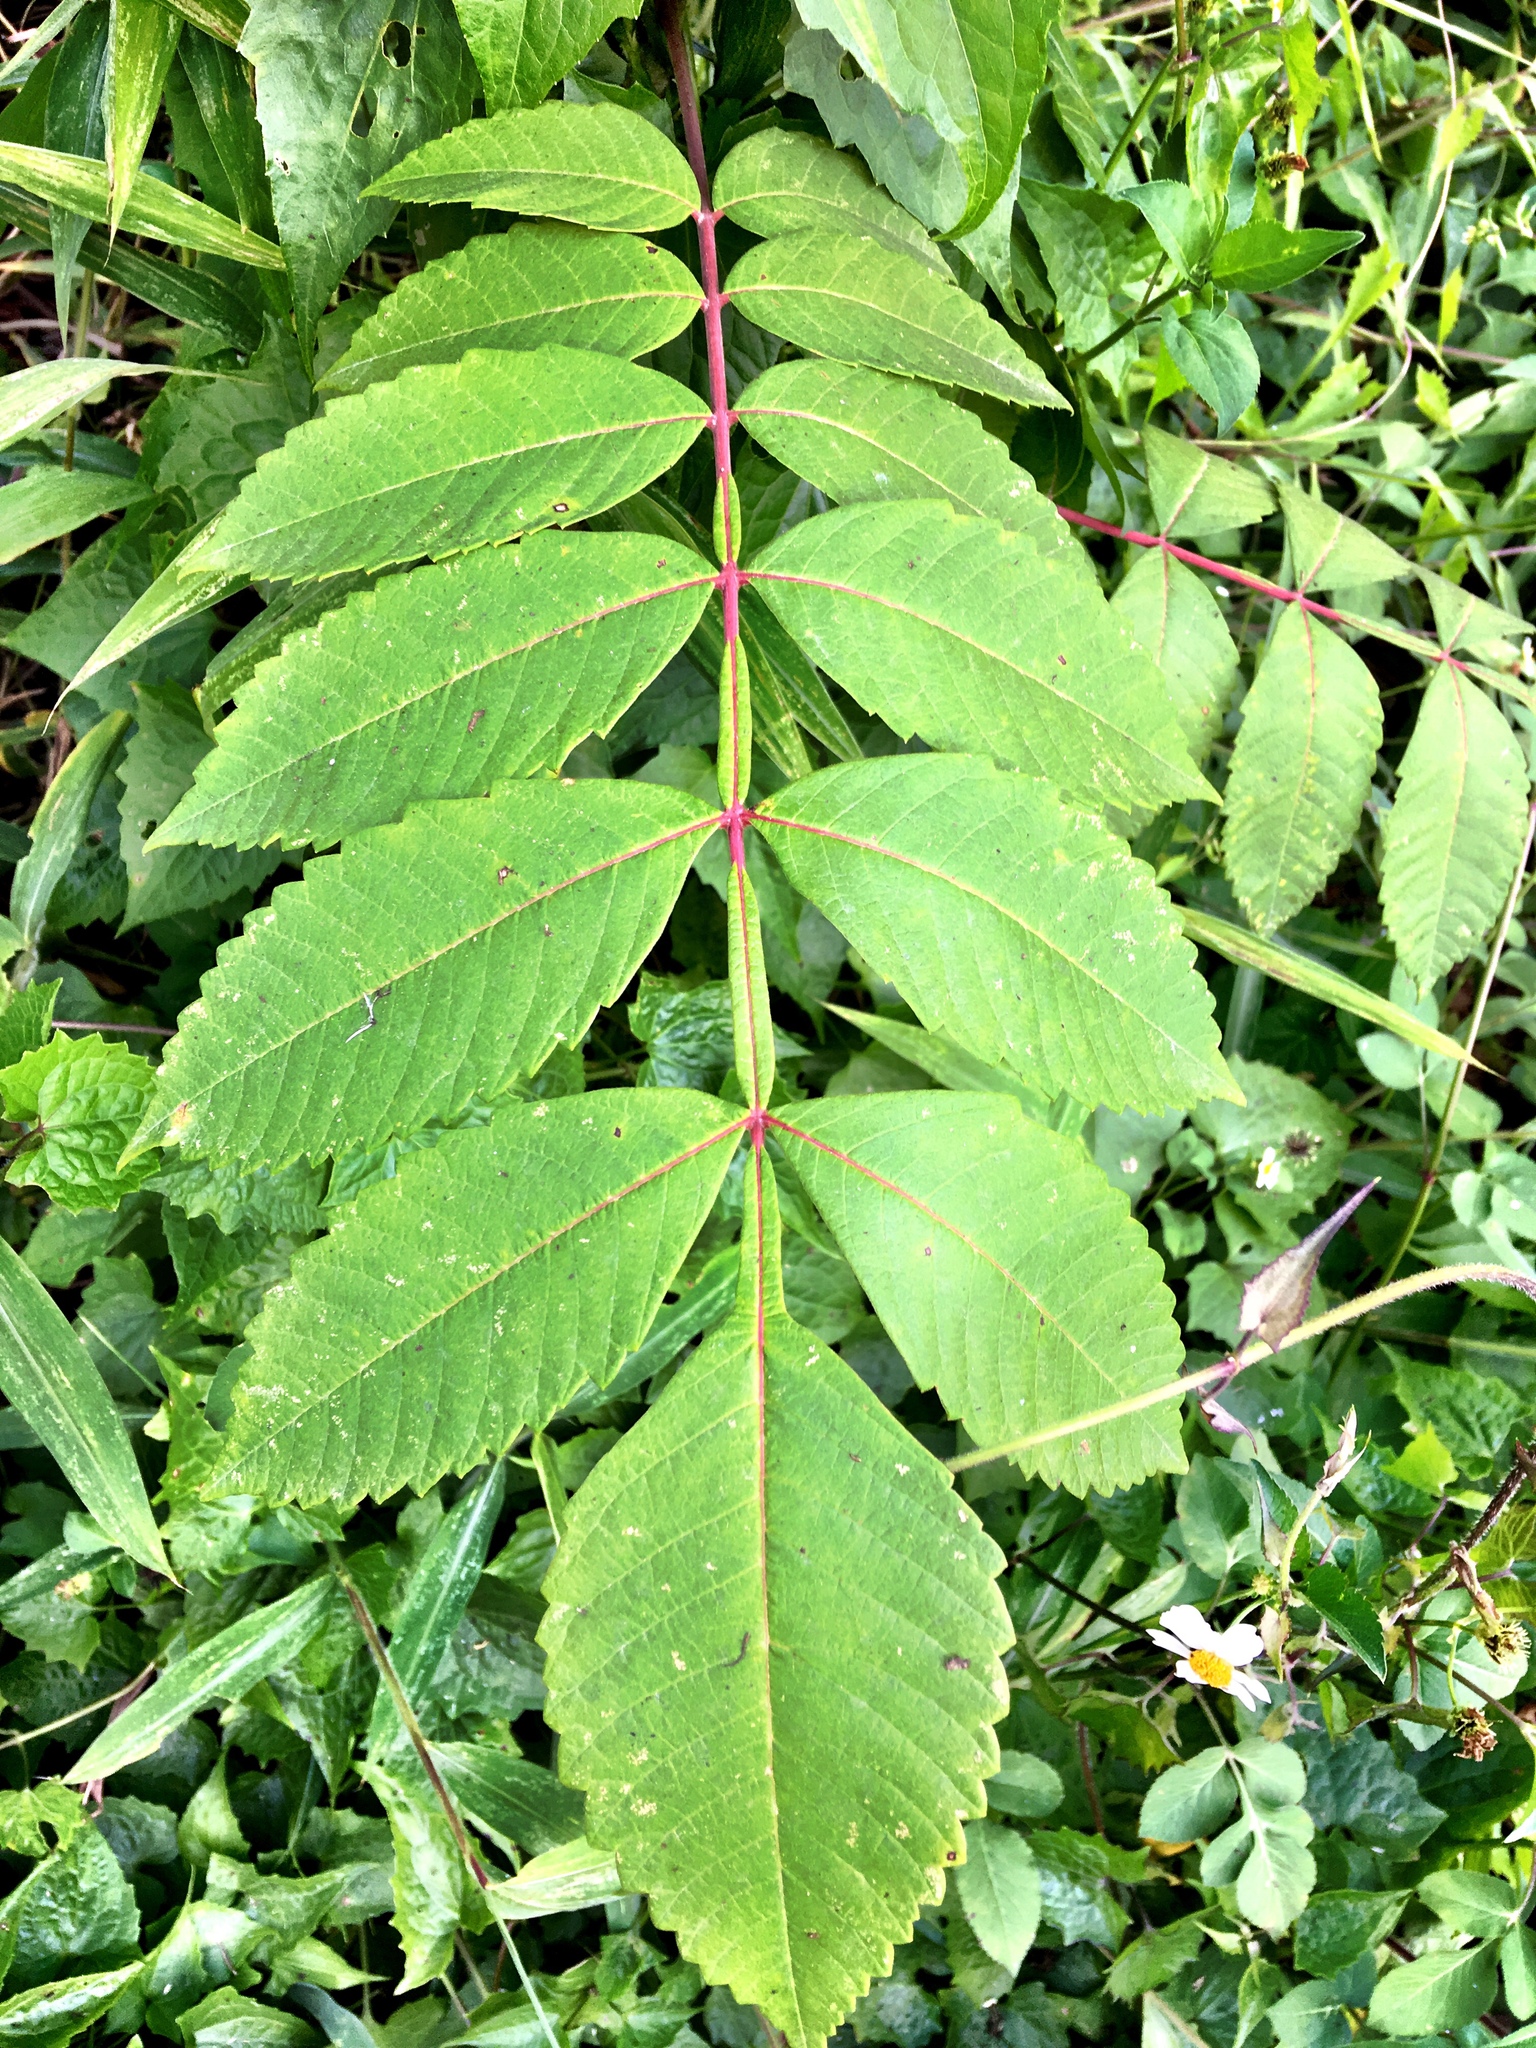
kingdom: Plantae
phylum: Tracheophyta
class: Magnoliopsida
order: Sapindales
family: Anacardiaceae
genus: Rhus
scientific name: Rhus chinensis
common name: Chinese gall
